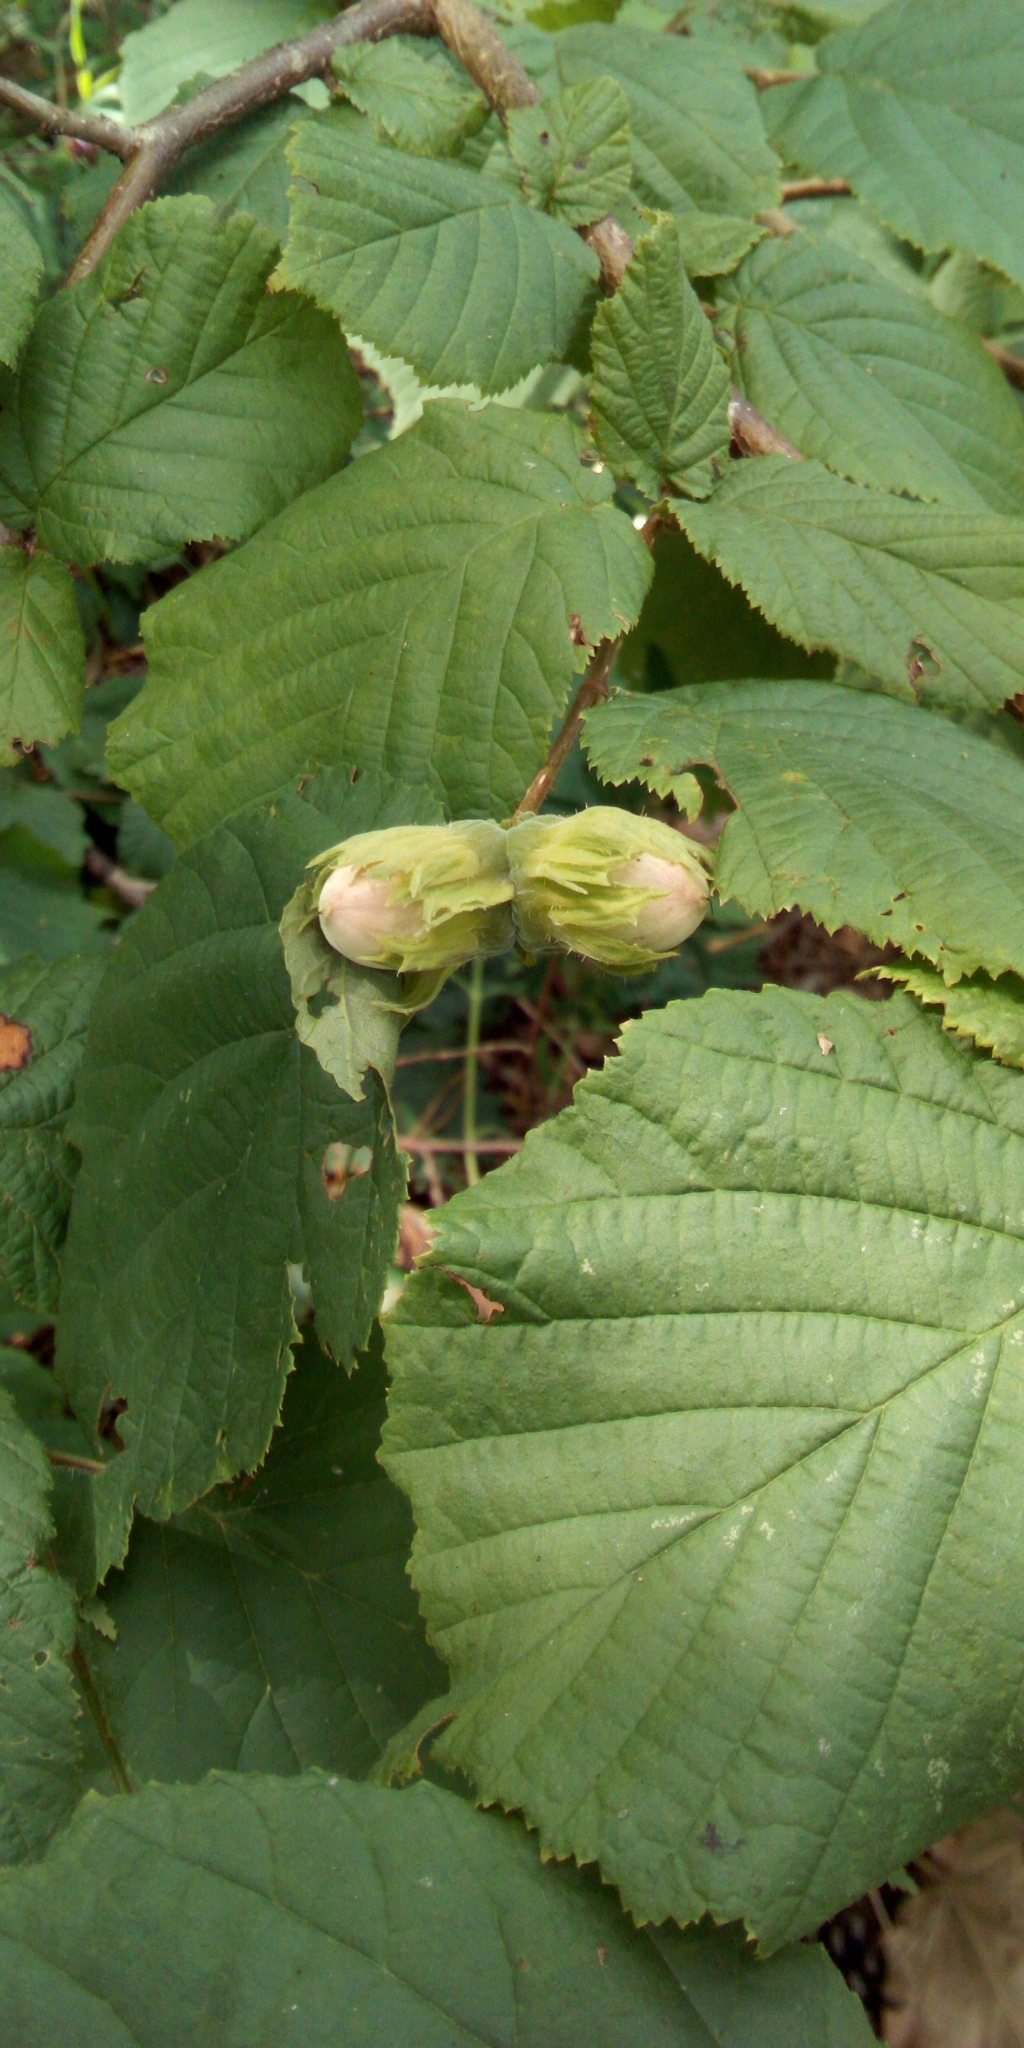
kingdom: Plantae
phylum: Tracheophyta
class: Magnoliopsida
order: Fagales
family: Betulaceae
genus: Corylus
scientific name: Corylus avellana
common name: European hazel
